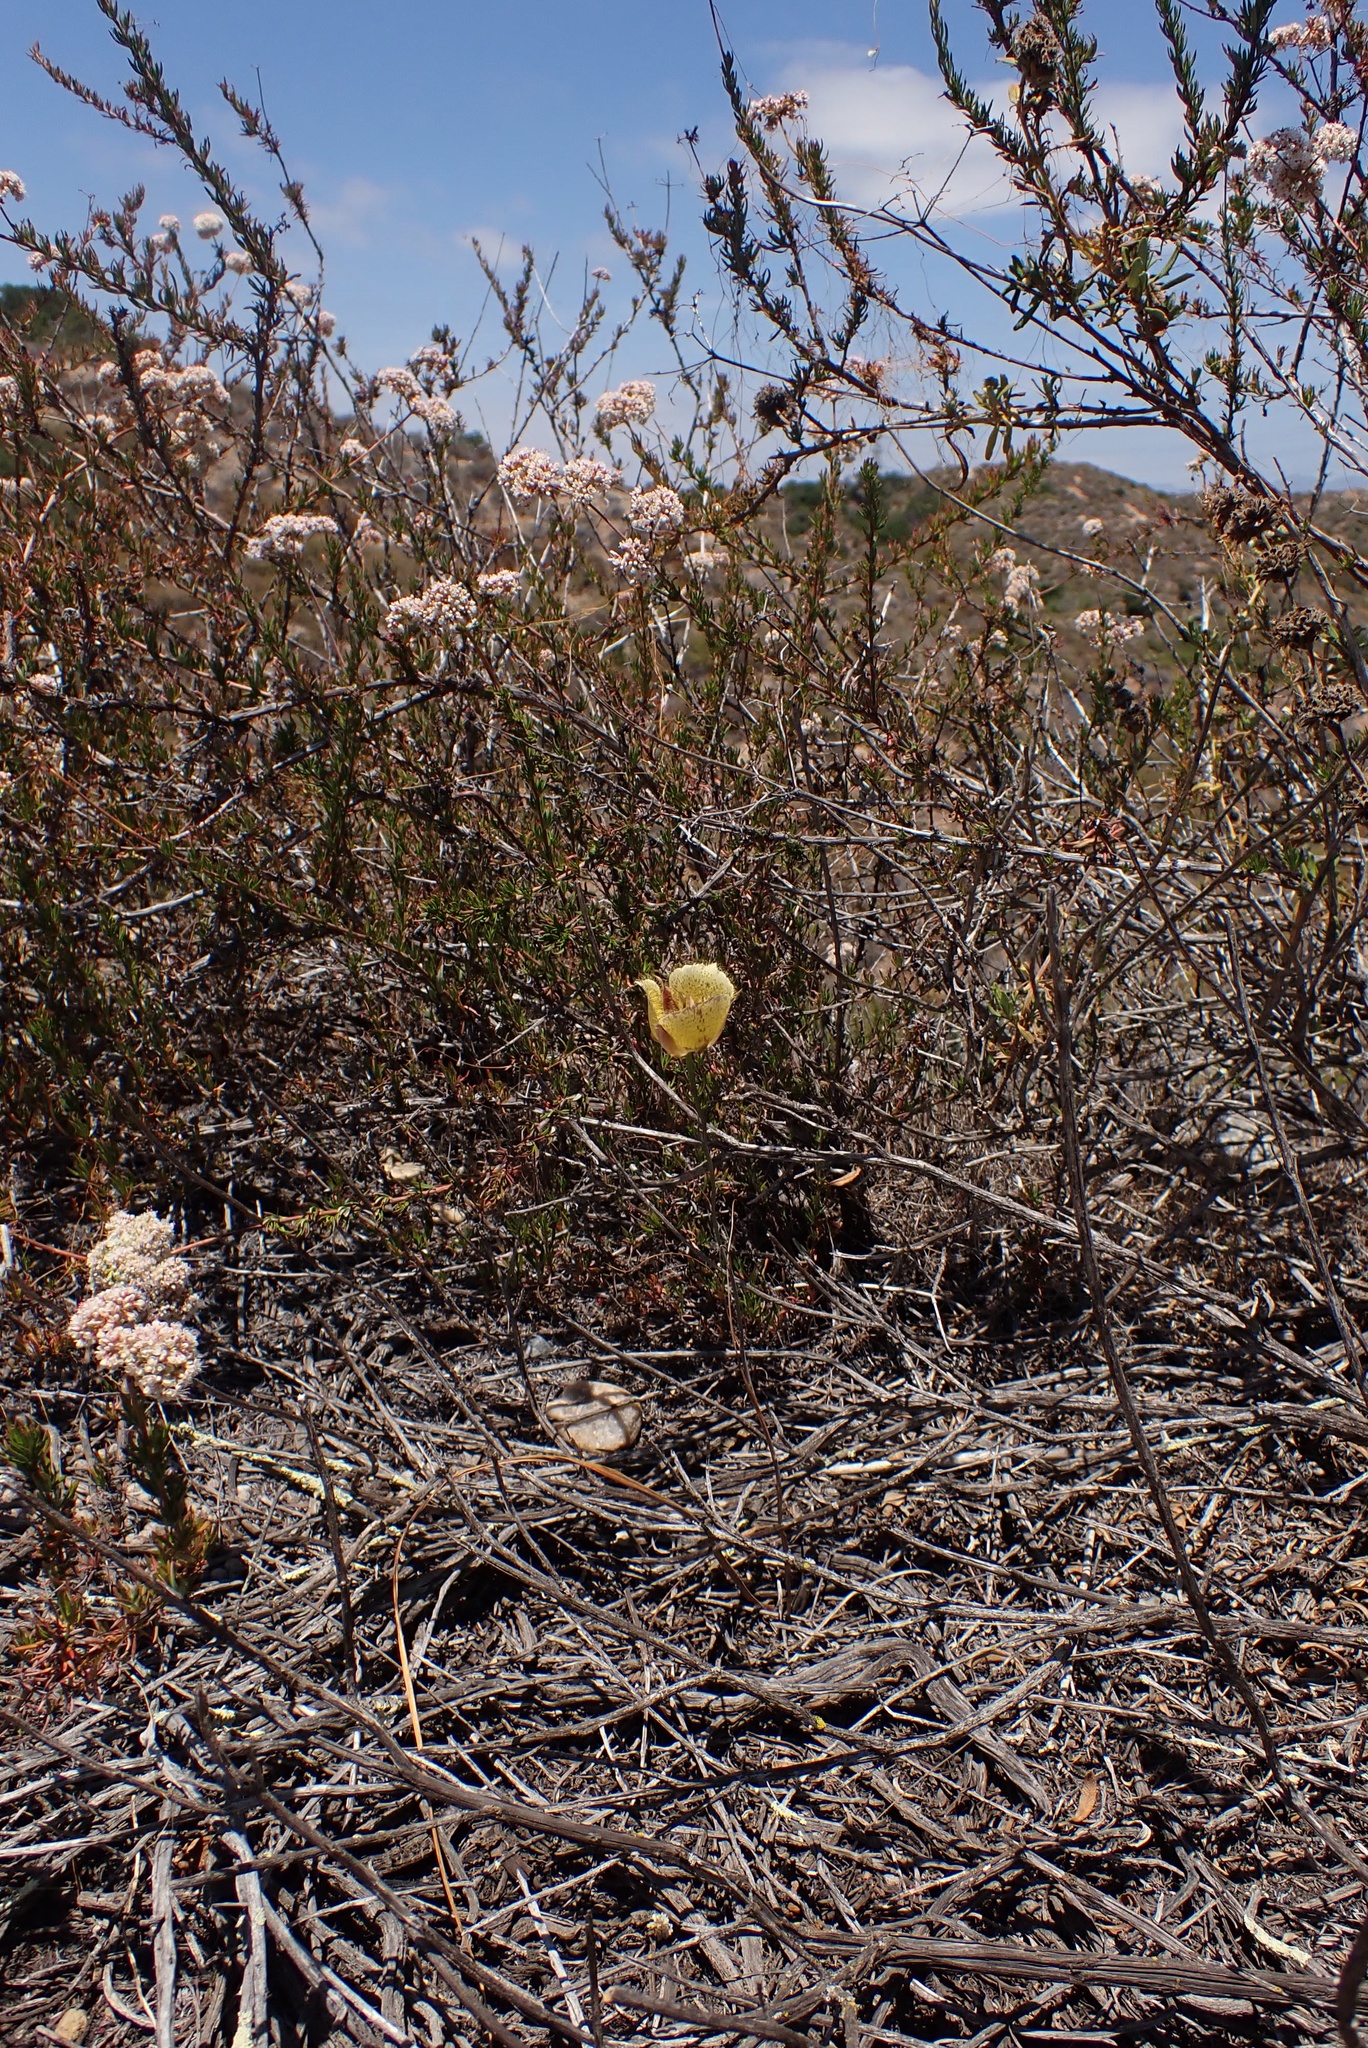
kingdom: Plantae
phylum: Tracheophyta
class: Liliopsida
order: Liliales
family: Liliaceae
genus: Calochortus
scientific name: Calochortus weedii
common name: Weed's mariposa-lily
